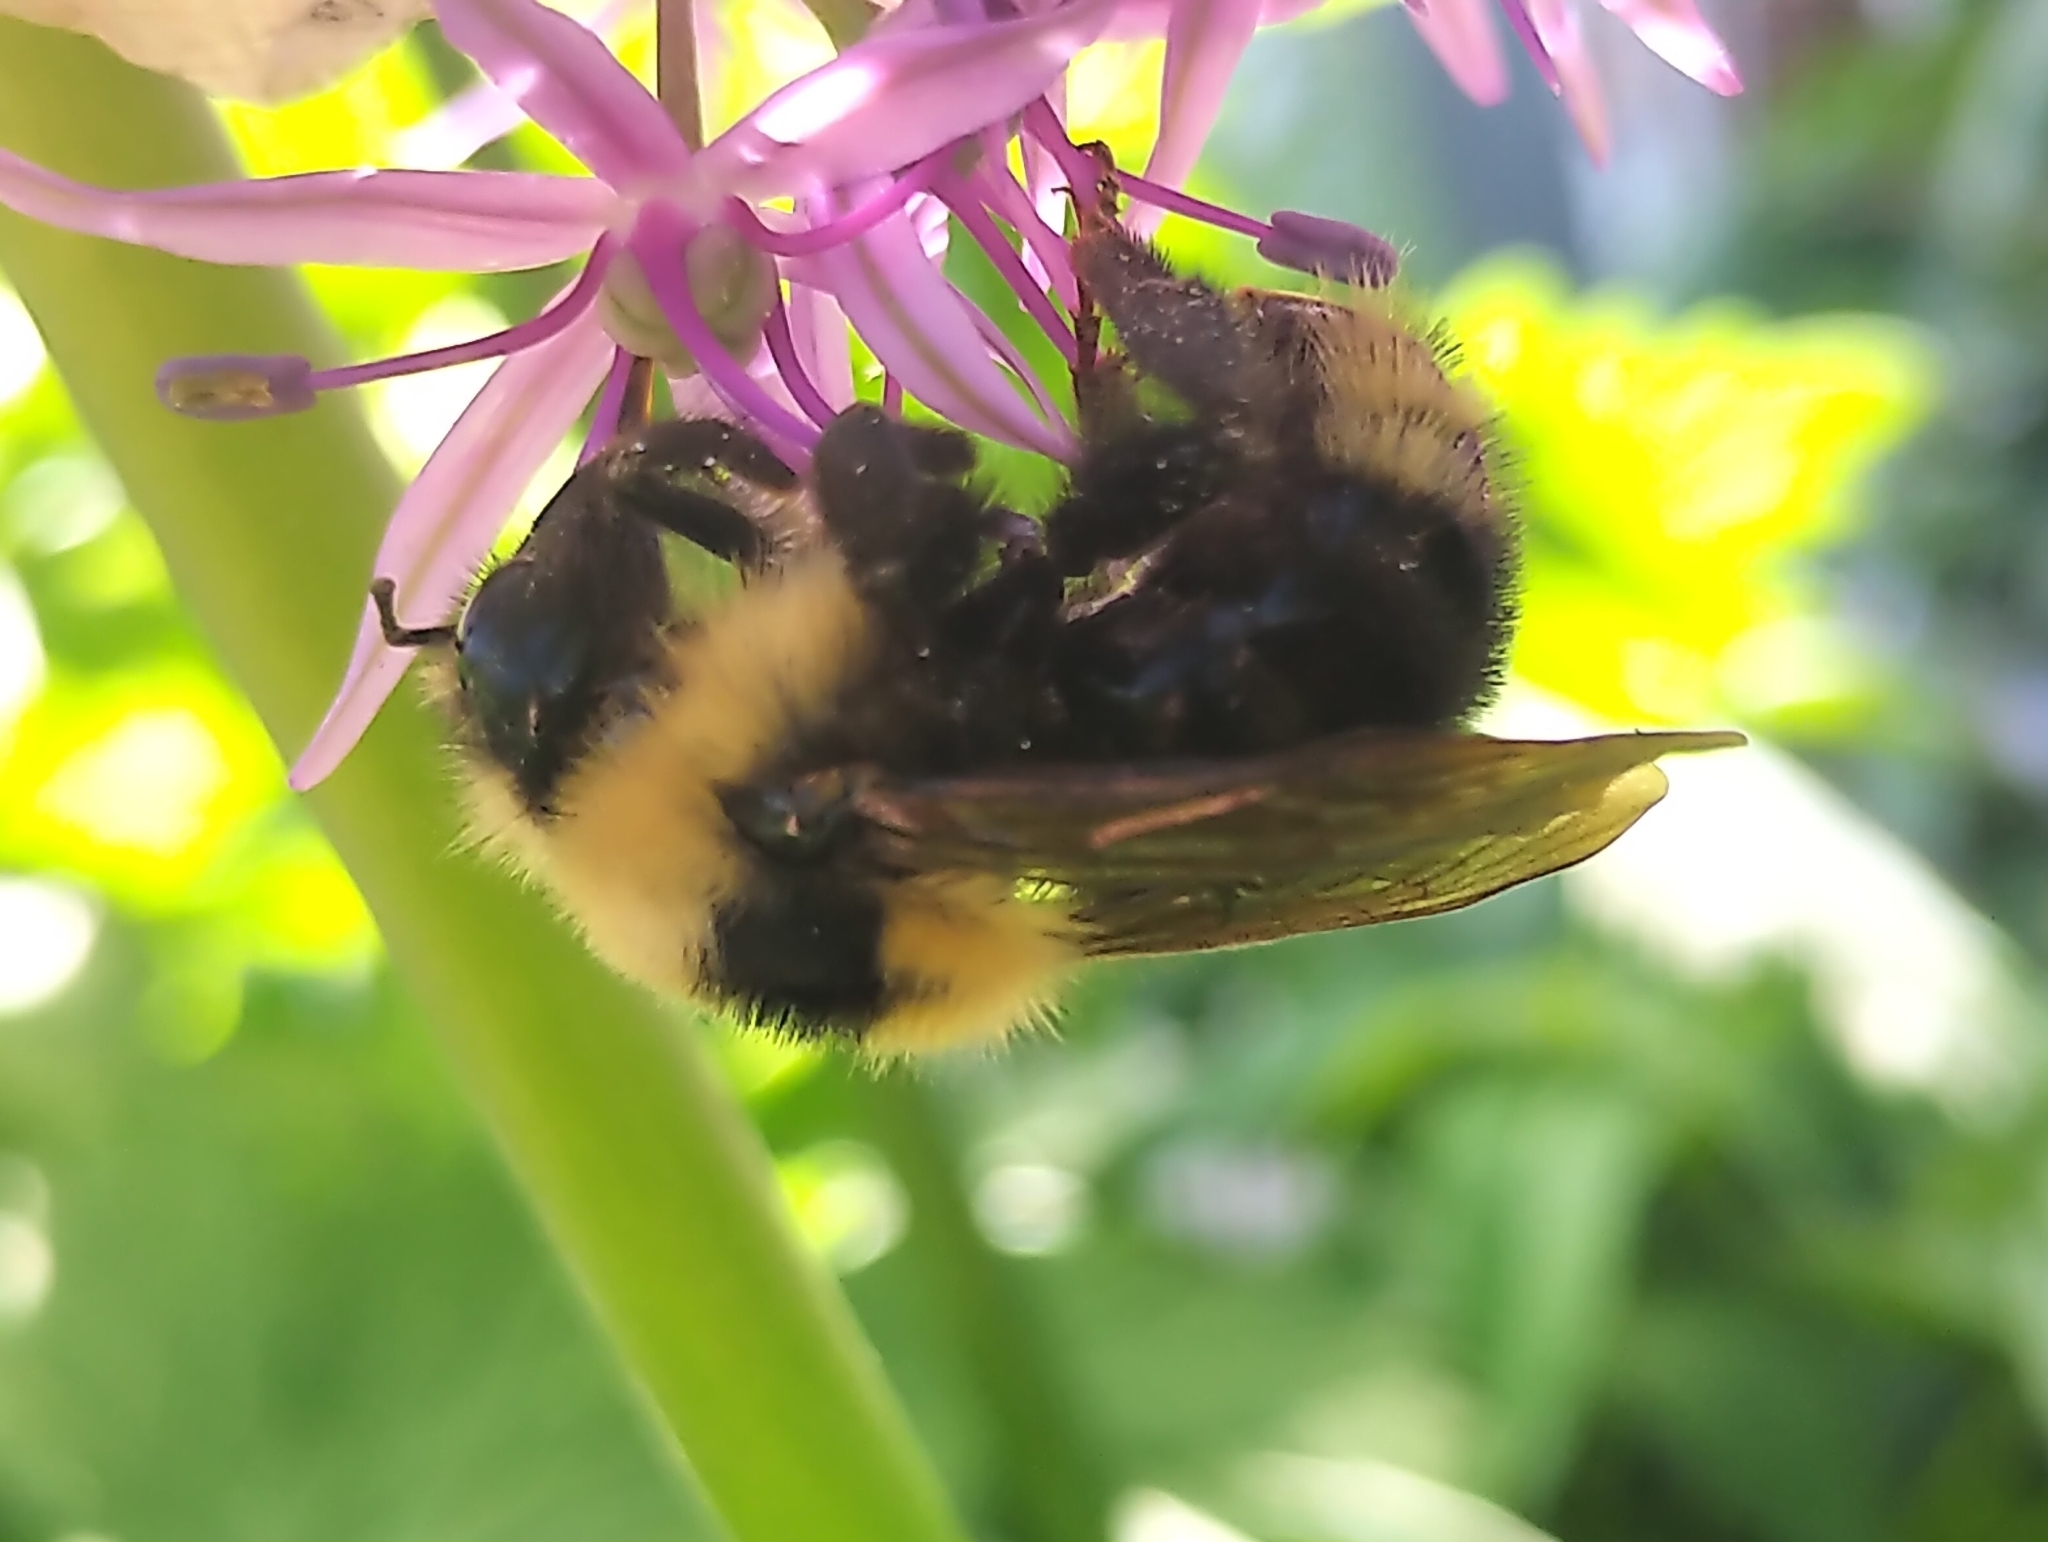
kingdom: Animalia
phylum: Arthropoda
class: Insecta
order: Hymenoptera
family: Apidae
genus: Bombus
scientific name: Bombus insularis
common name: Indiscriminate cuckoo bumble bee
